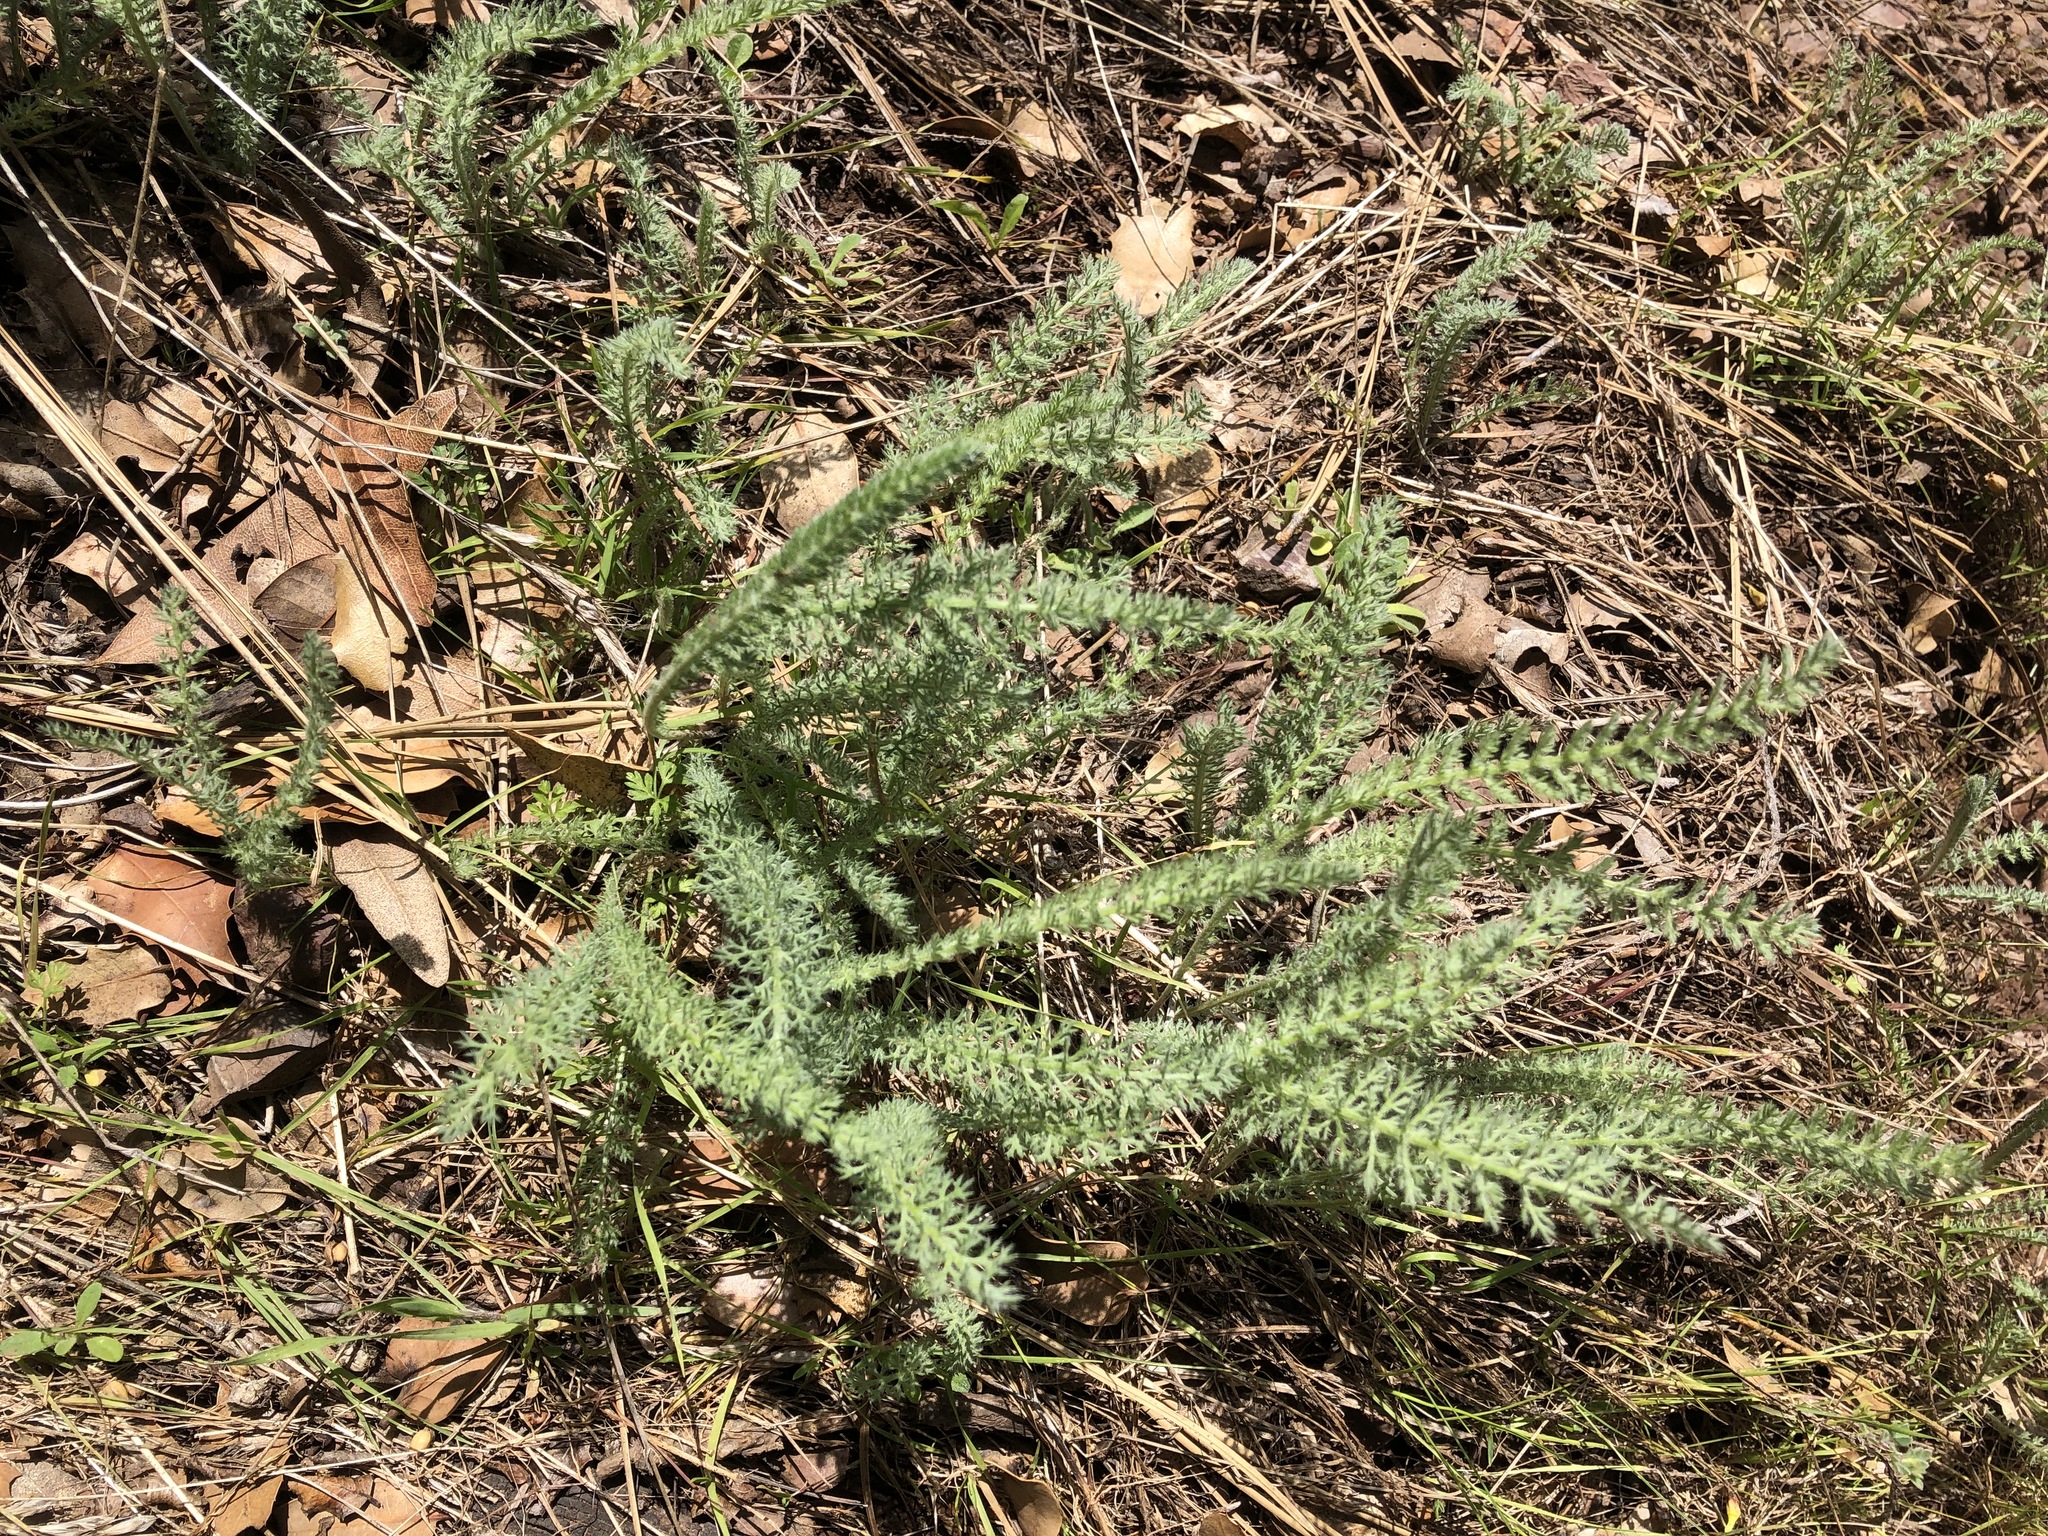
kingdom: Plantae
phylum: Tracheophyta
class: Magnoliopsida
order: Asterales
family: Asteraceae
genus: Achillea
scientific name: Achillea millefolium
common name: Yarrow
